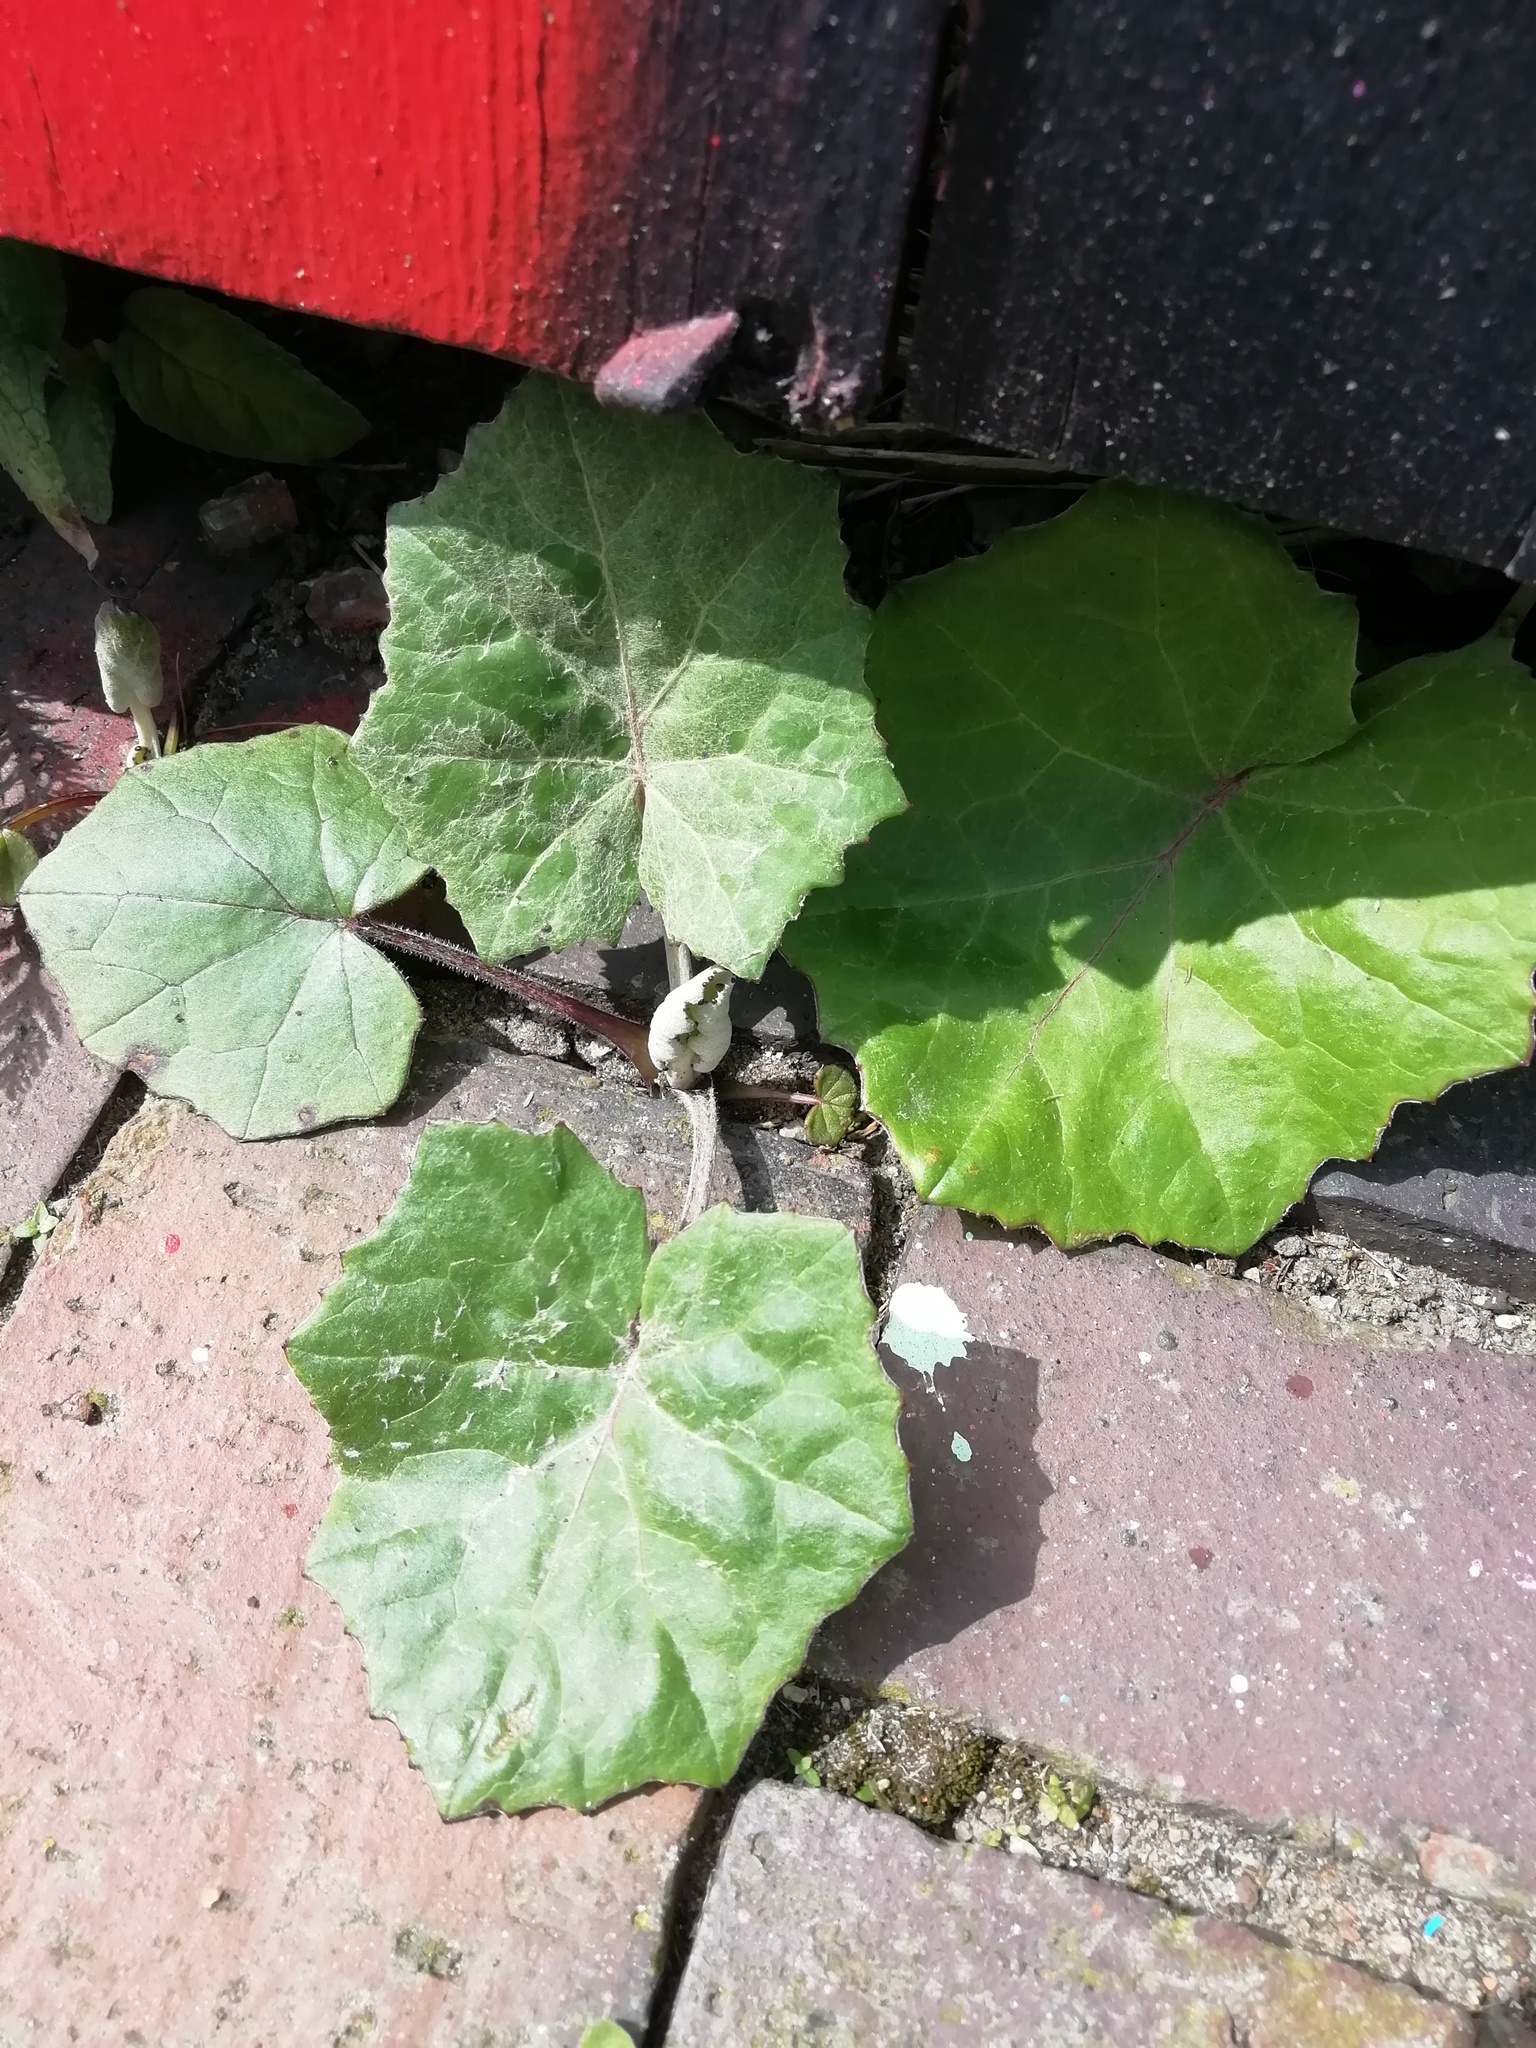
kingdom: Plantae
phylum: Tracheophyta
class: Magnoliopsida
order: Asterales
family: Asteraceae
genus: Tussilago
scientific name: Tussilago farfara
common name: Coltsfoot
